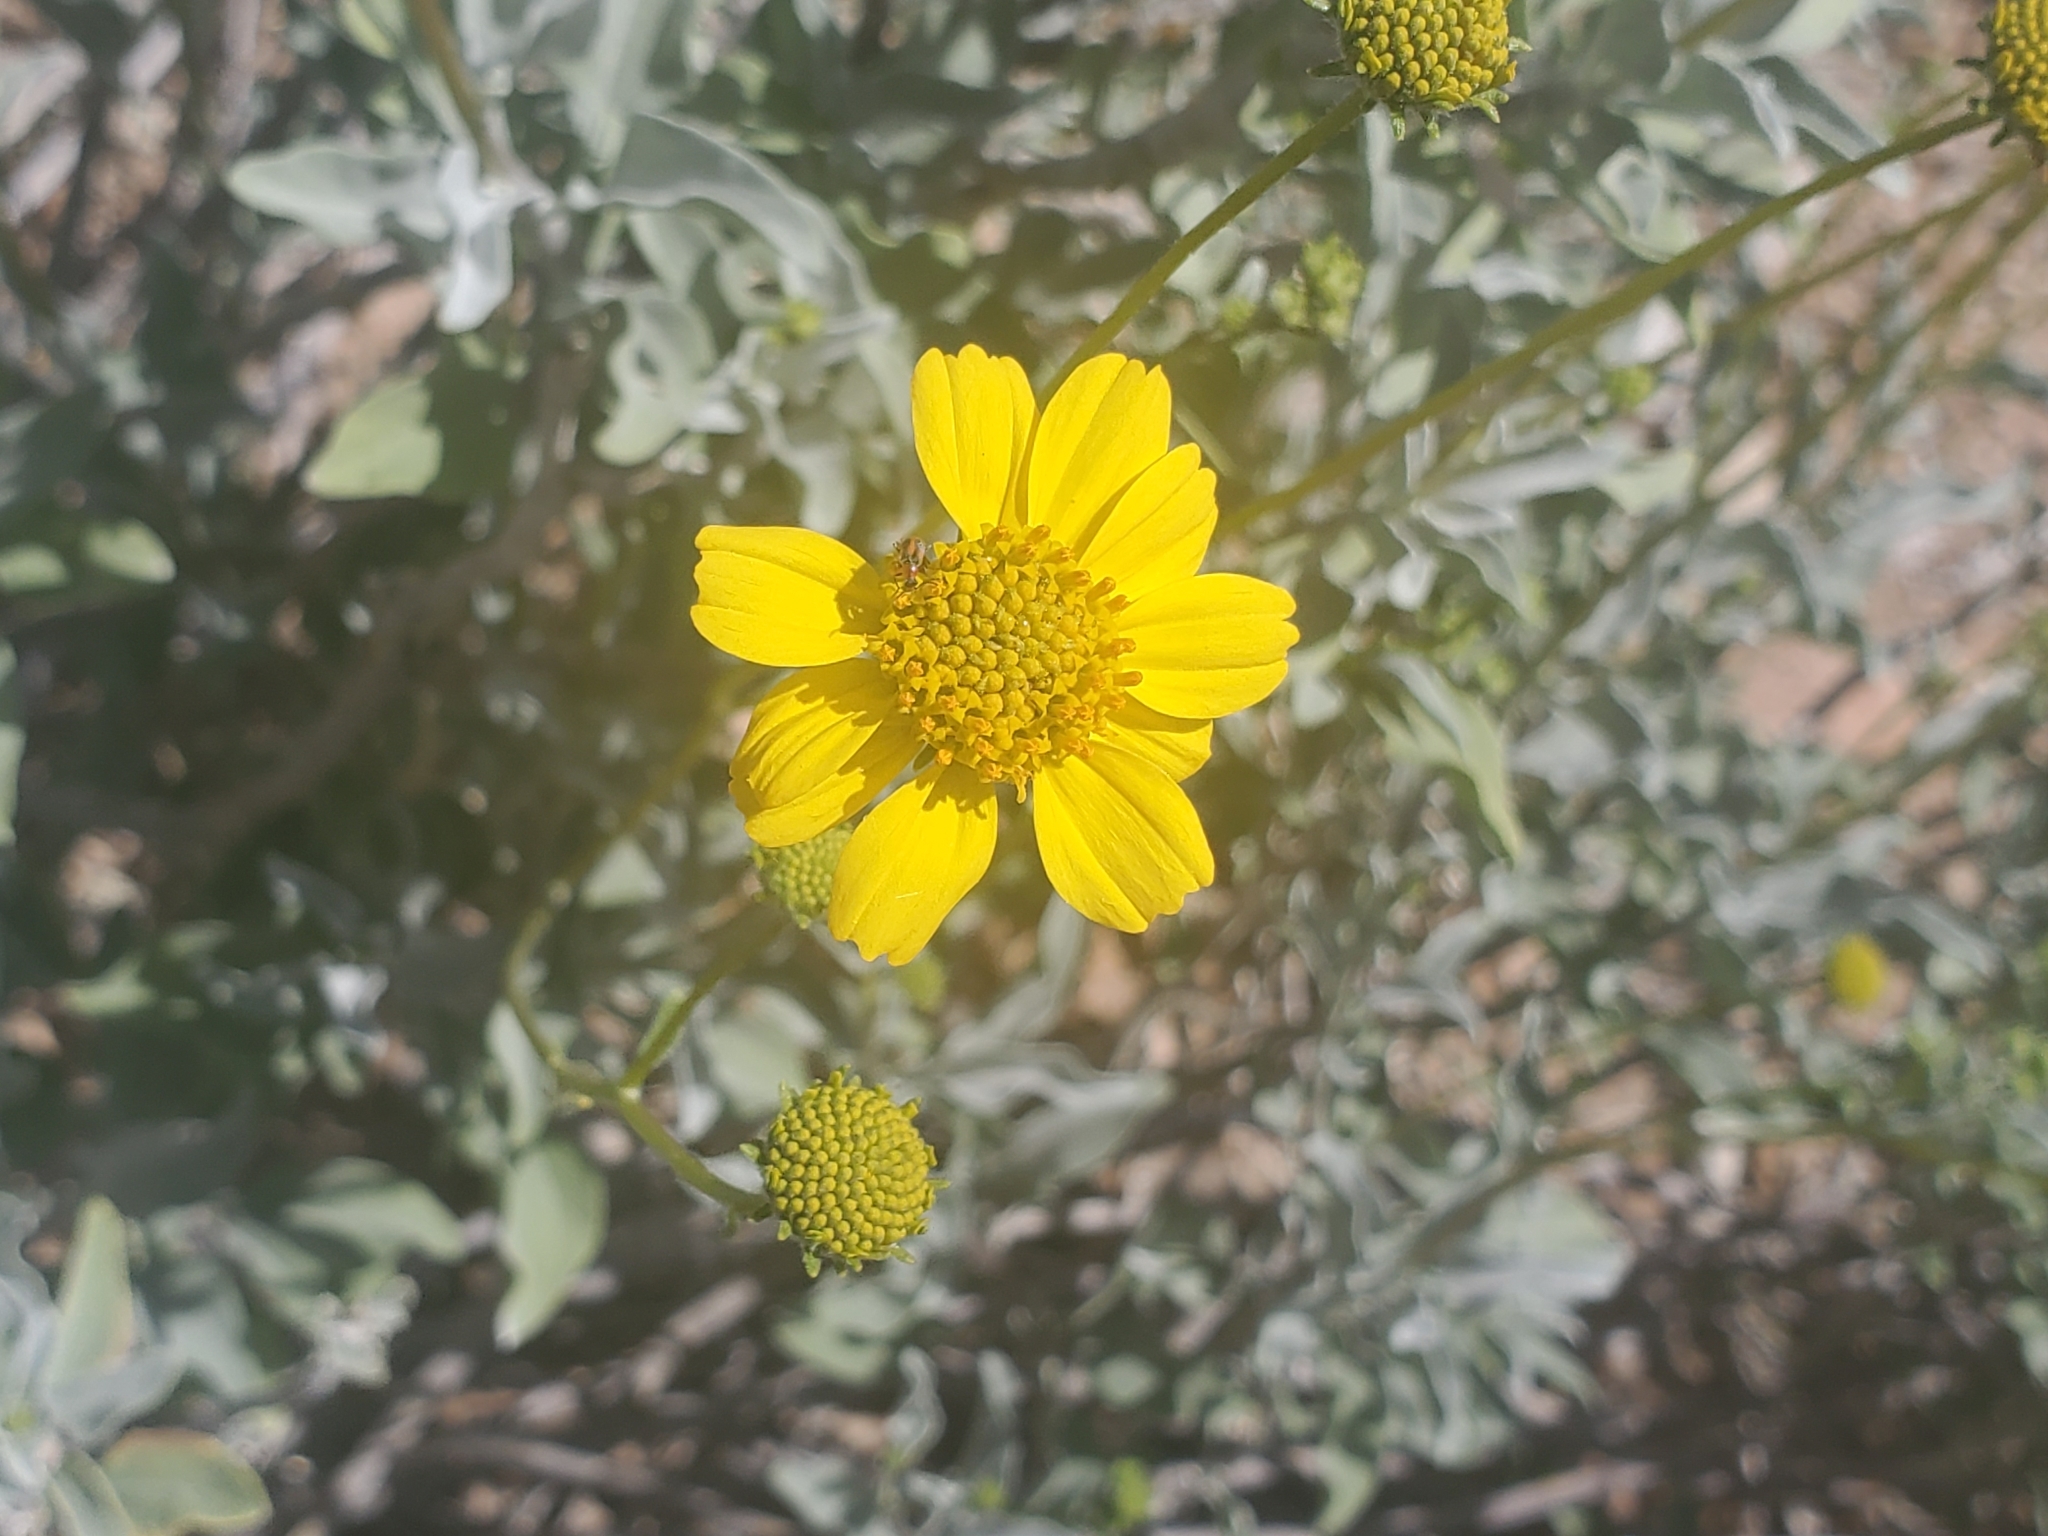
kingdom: Plantae
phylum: Tracheophyta
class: Magnoliopsida
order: Asterales
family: Asteraceae
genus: Encelia
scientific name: Encelia farinosa
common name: Brittlebush
